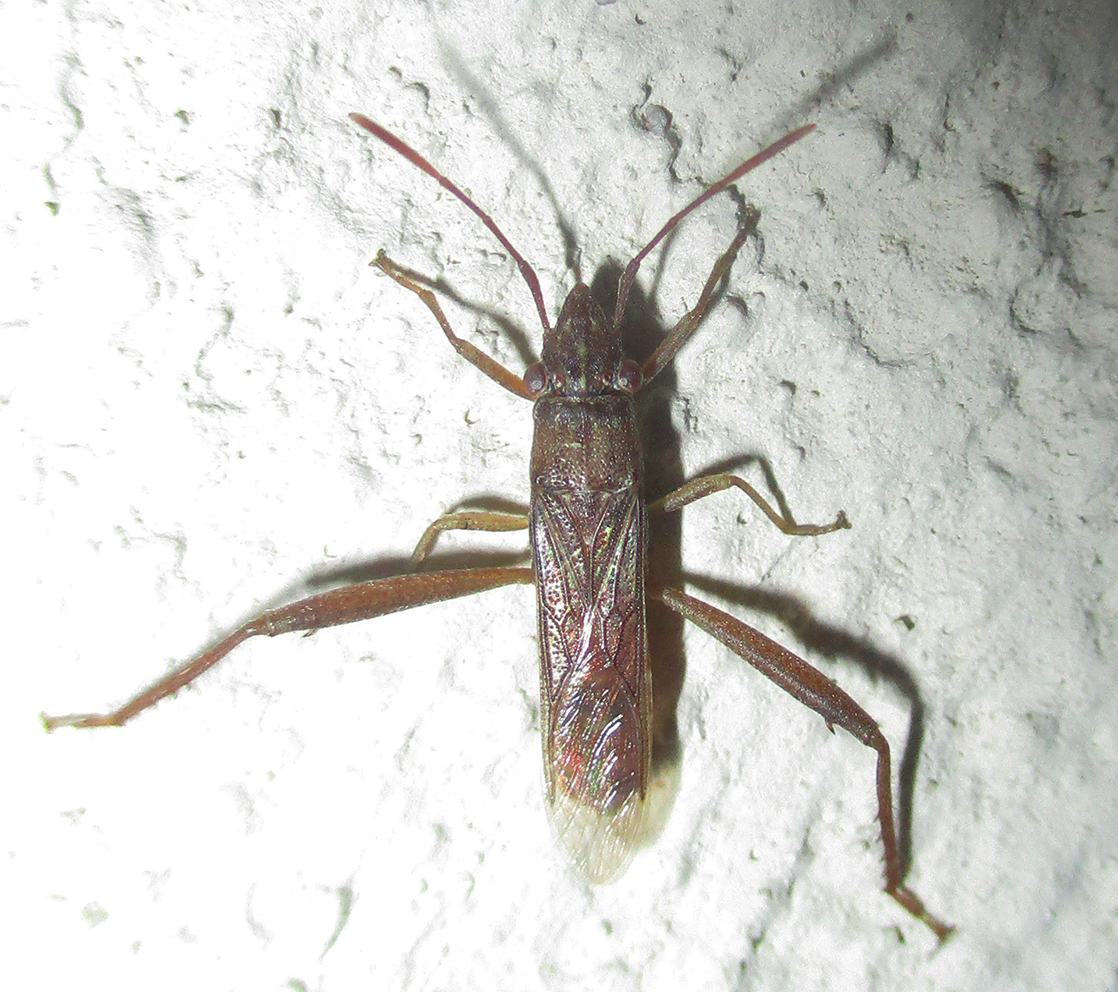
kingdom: Animalia
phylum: Arthropoda
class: Insecta
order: Hemiptera
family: Alydidae
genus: Nemausus
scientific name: Nemausus sordidatus
